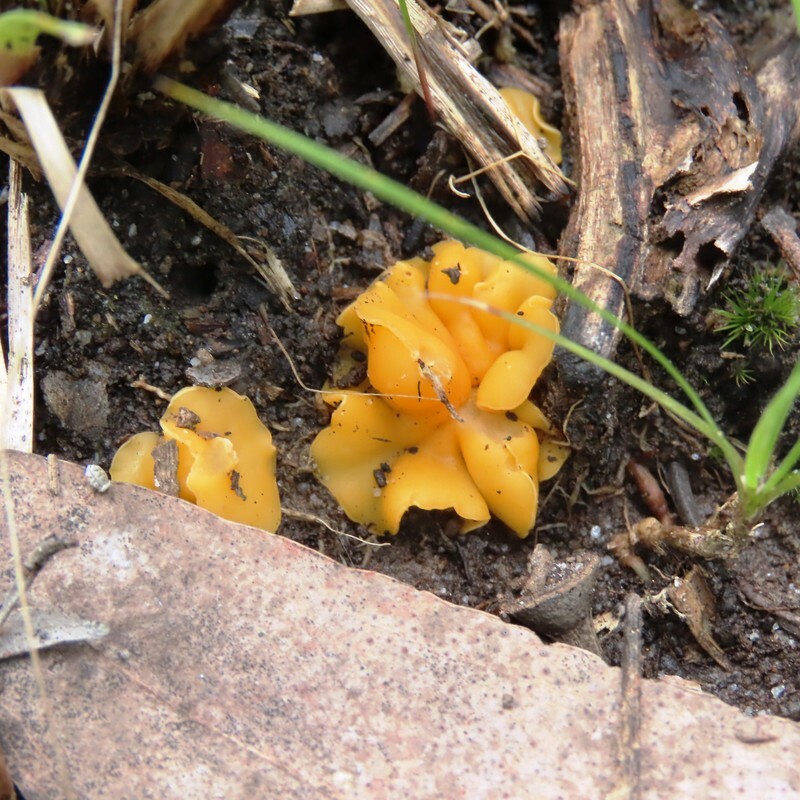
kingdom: Fungi
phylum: Ascomycota
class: Leotiomycetes
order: Helotiales
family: Helotiaceae
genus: Phaeohelotium
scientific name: Phaeohelotium baileyanum
